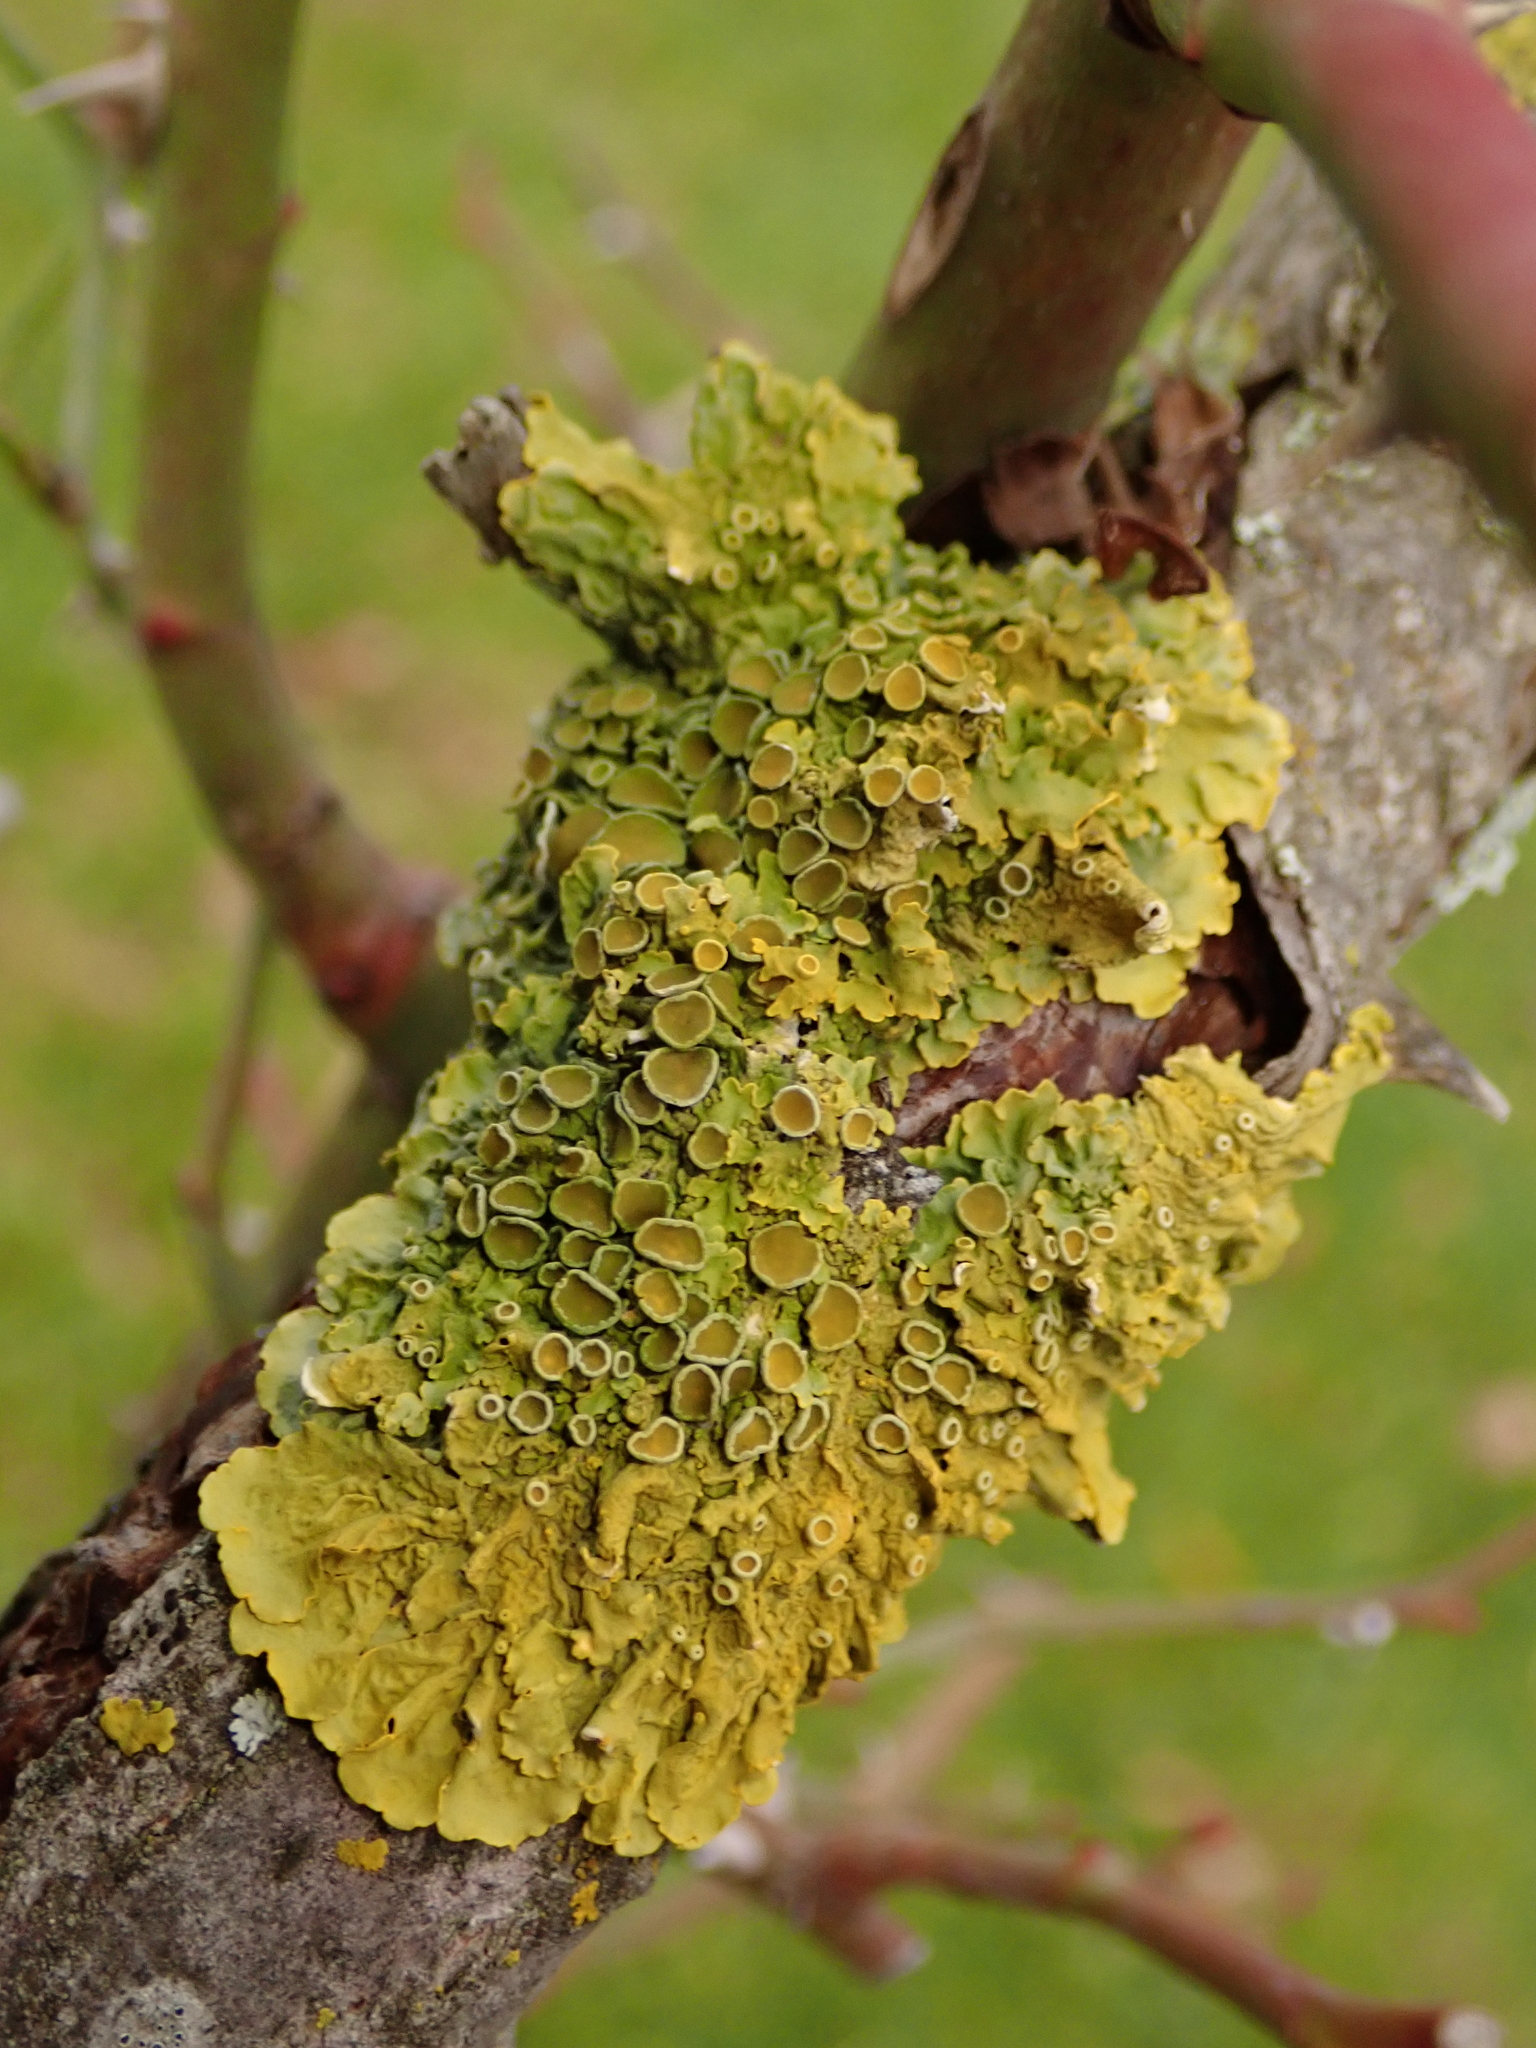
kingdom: Fungi
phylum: Ascomycota
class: Lecanoromycetes
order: Teloschistales
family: Teloschistaceae
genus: Xanthoria
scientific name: Xanthoria parietina
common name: Common orange lichen
